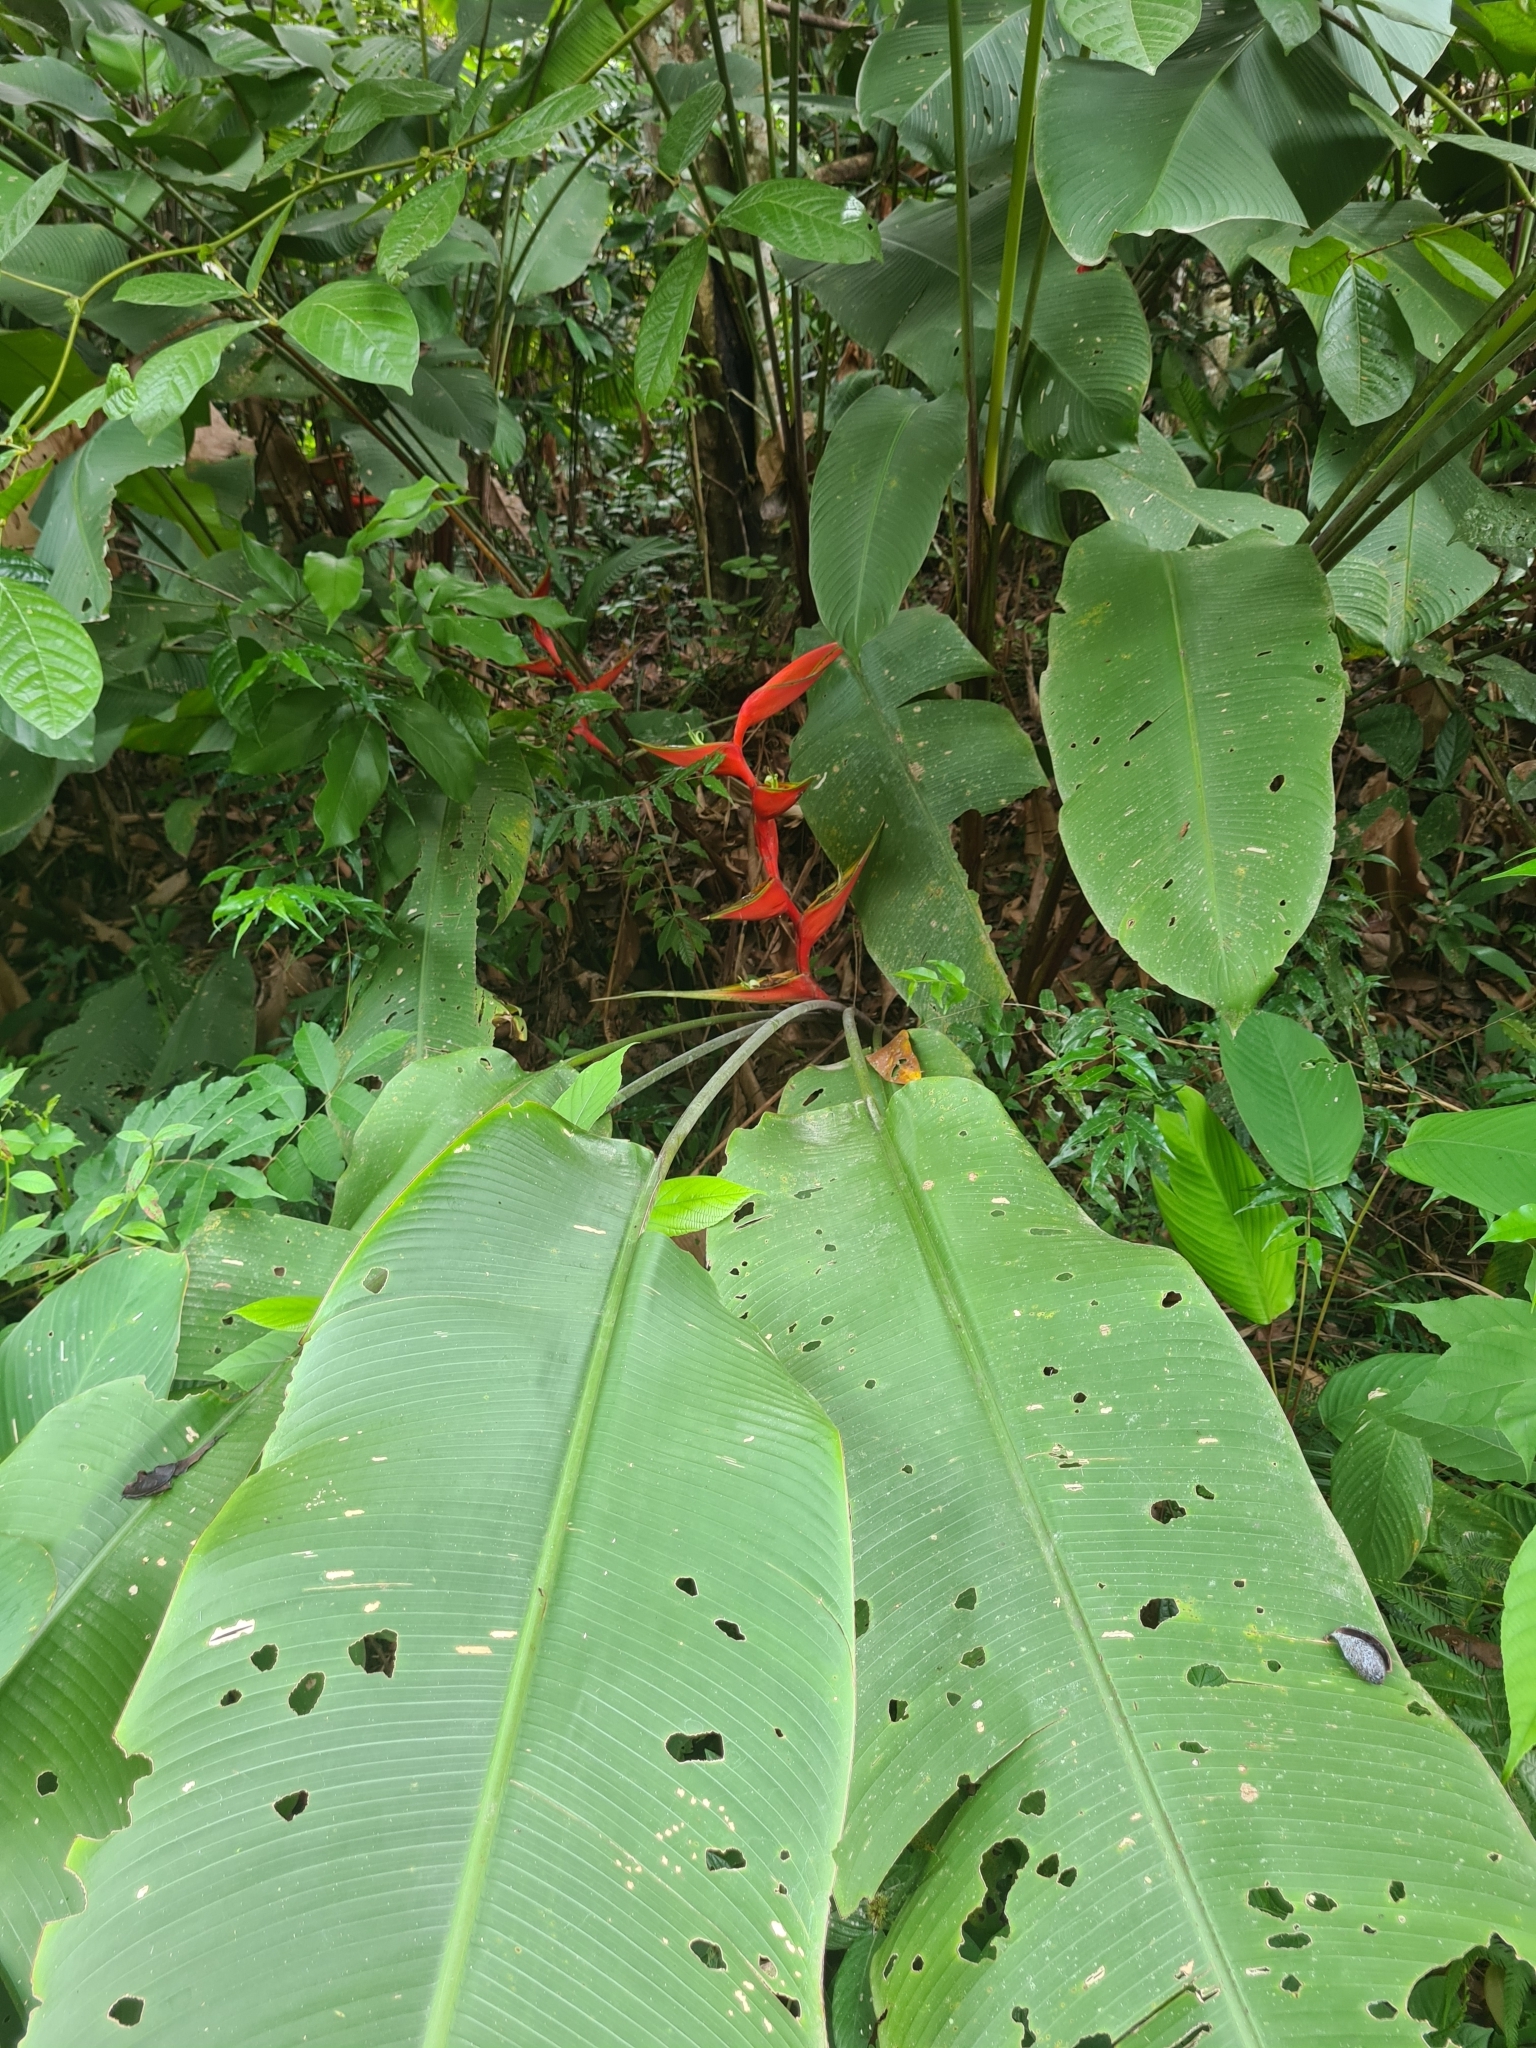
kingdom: Plantae
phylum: Tracheophyta
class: Liliopsida
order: Zingiberales
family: Heliconiaceae
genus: Heliconia
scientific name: Heliconia bihai
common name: Macaw flower
